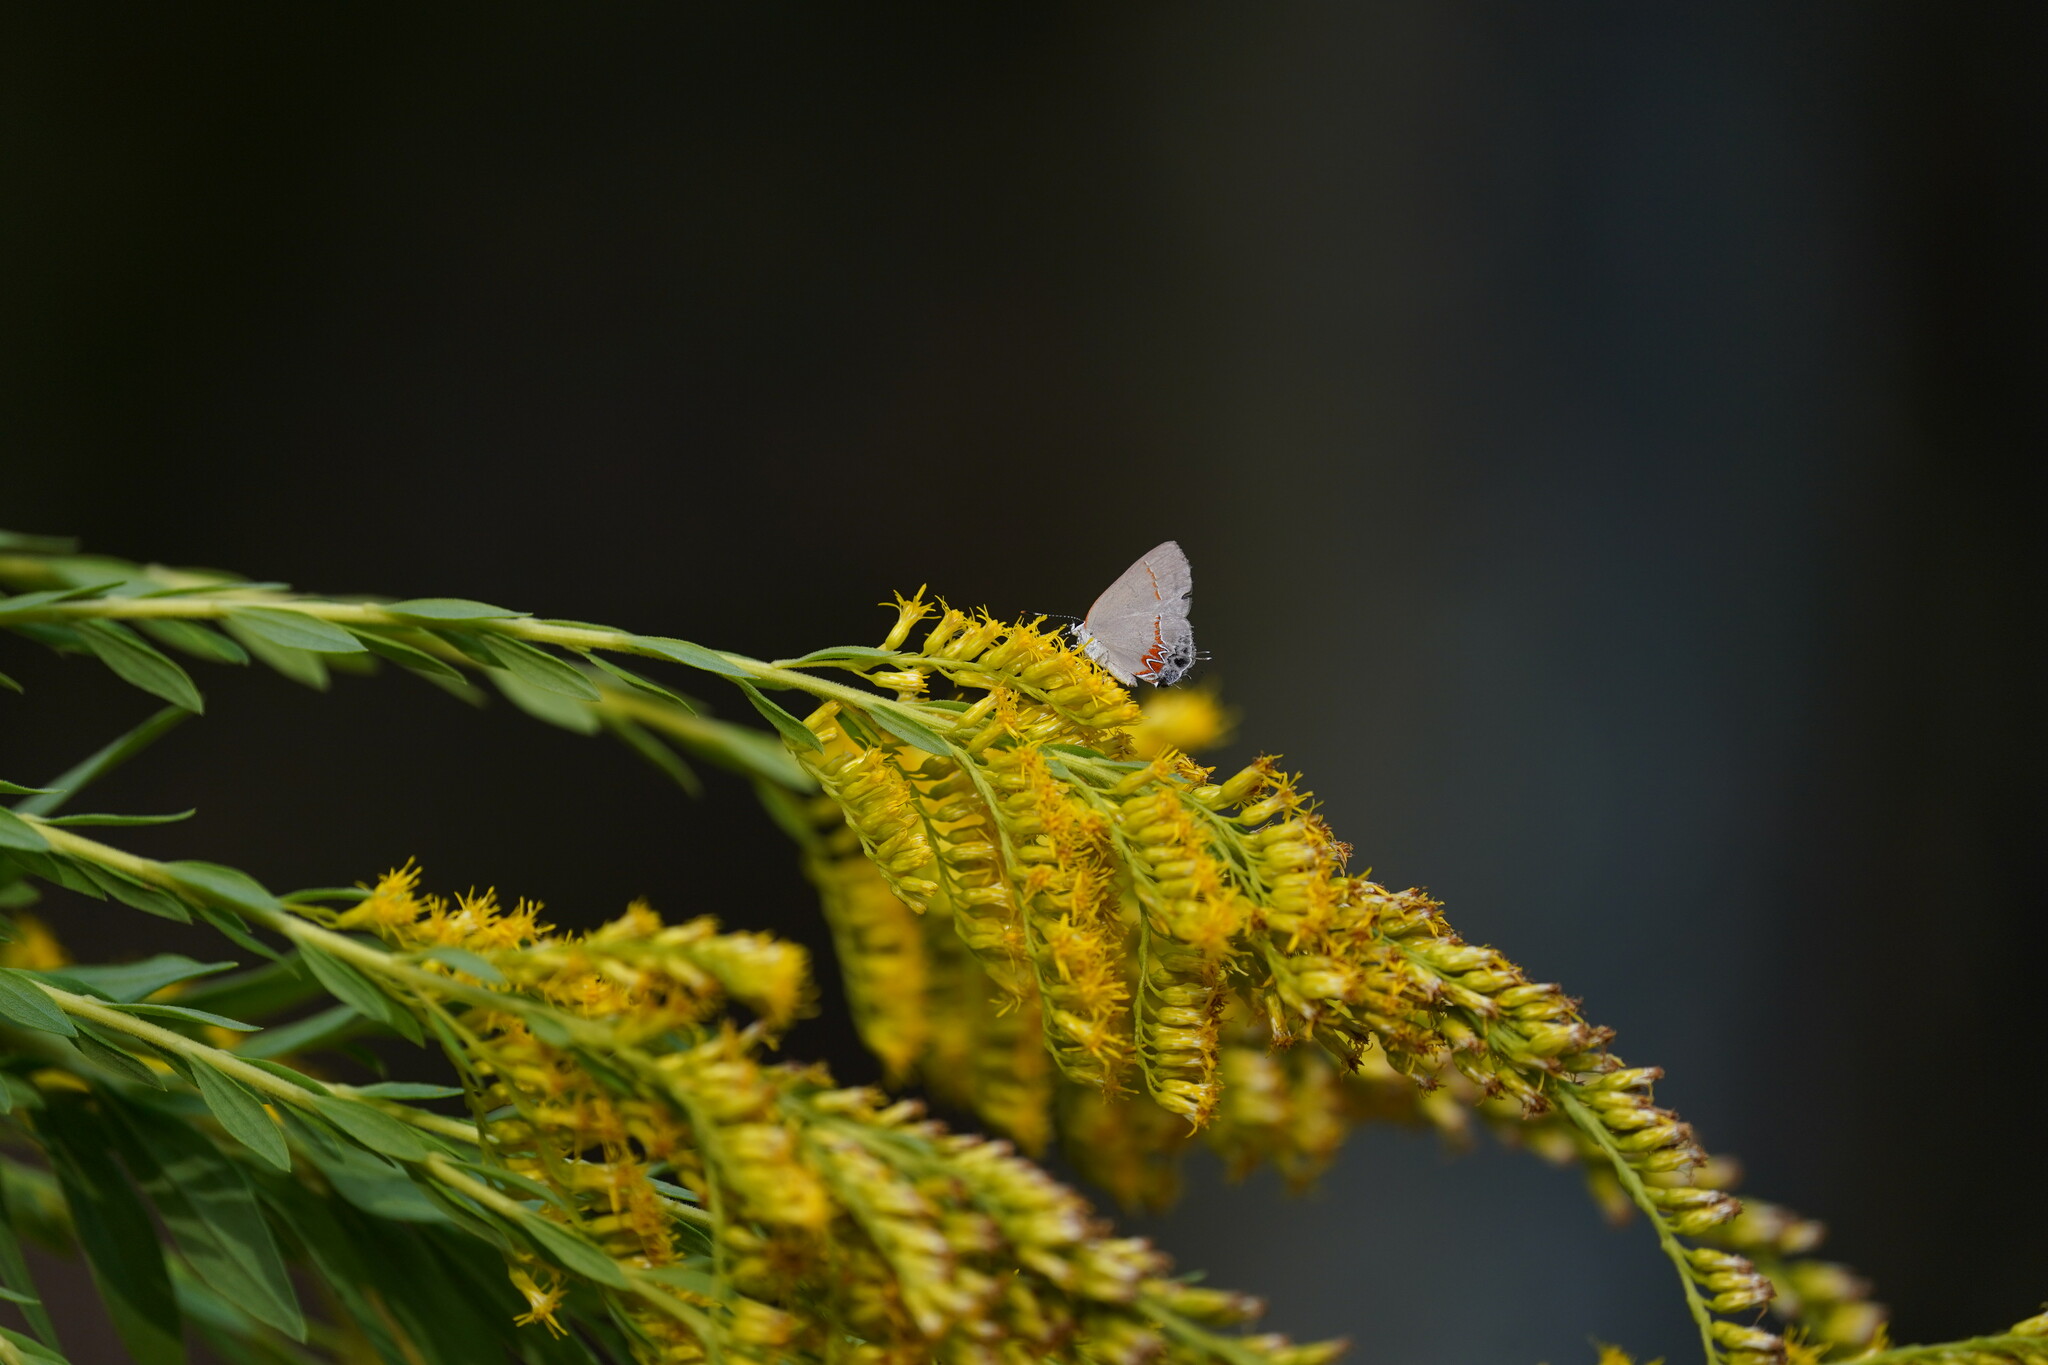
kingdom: Animalia
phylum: Arthropoda
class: Insecta
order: Lepidoptera
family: Lycaenidae
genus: Calycopis
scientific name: Calycopis cecrops
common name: Red-banded hairstreak
